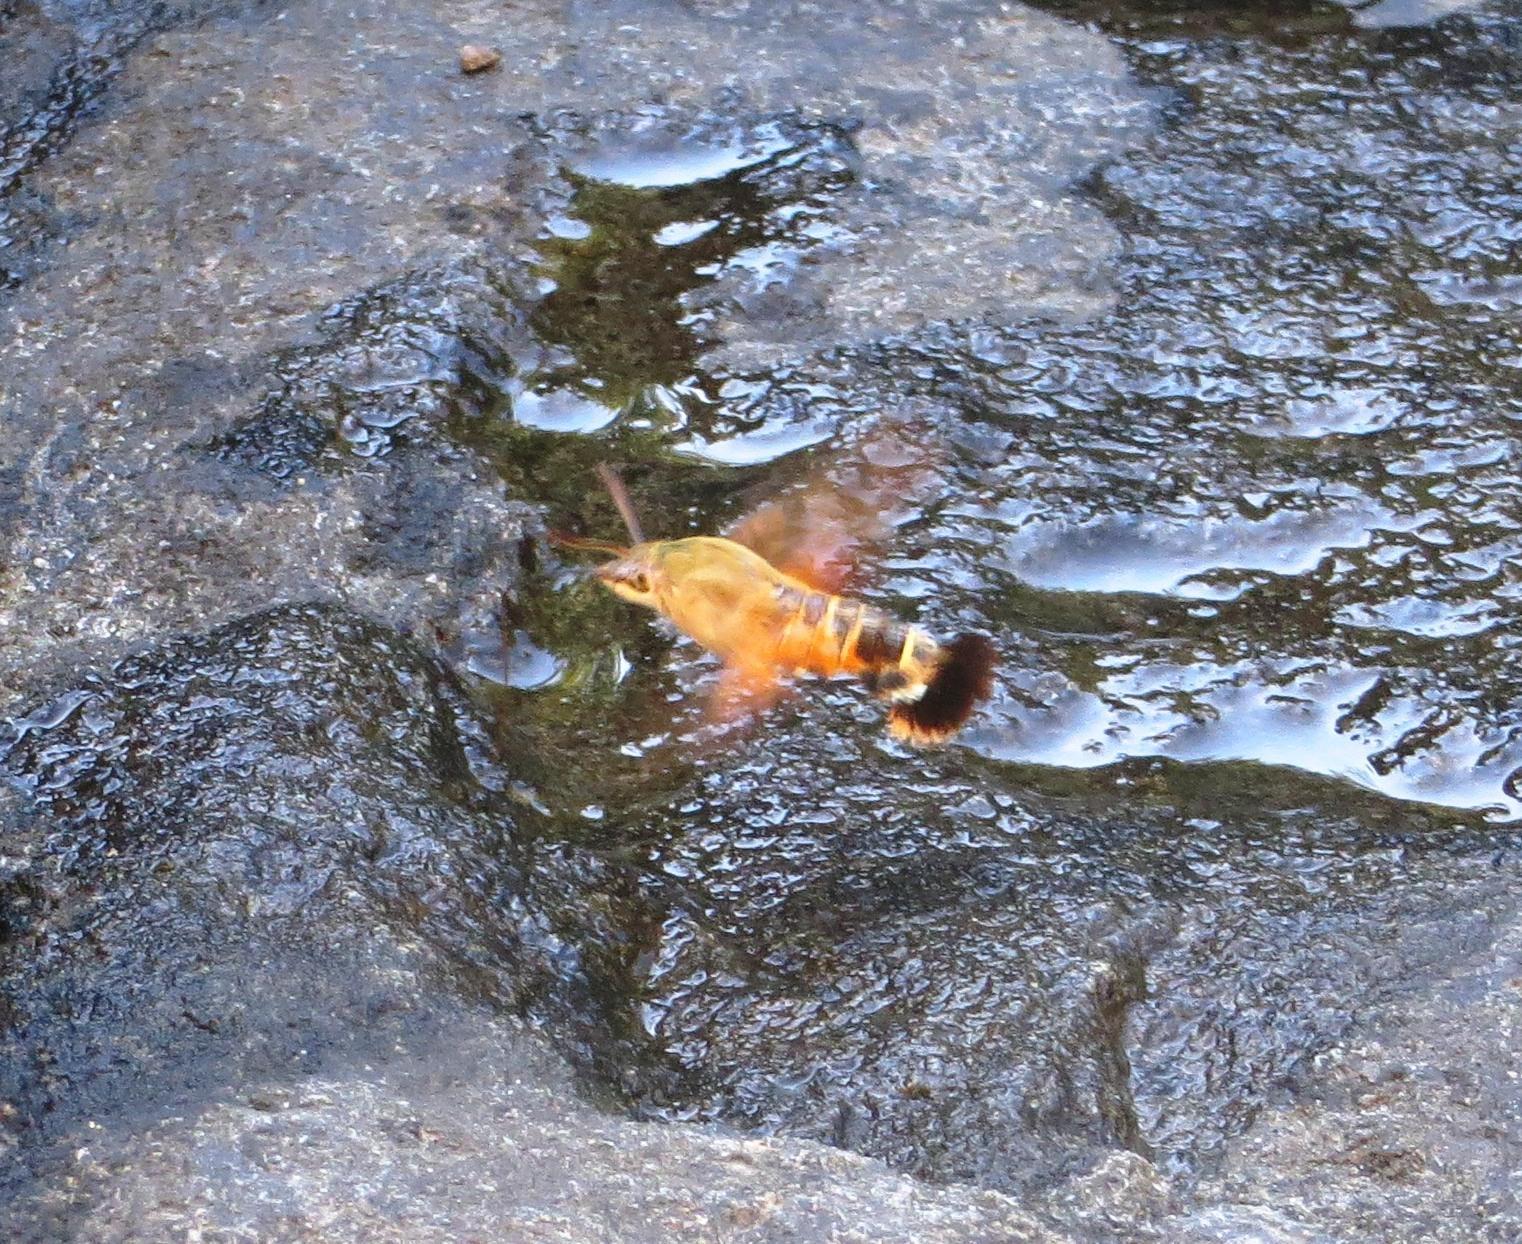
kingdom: Animalia
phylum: Arthropoda
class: Insecta
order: Lepidoptera
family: Sphingidae
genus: Macroglossum
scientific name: Macroglossum trochilus
